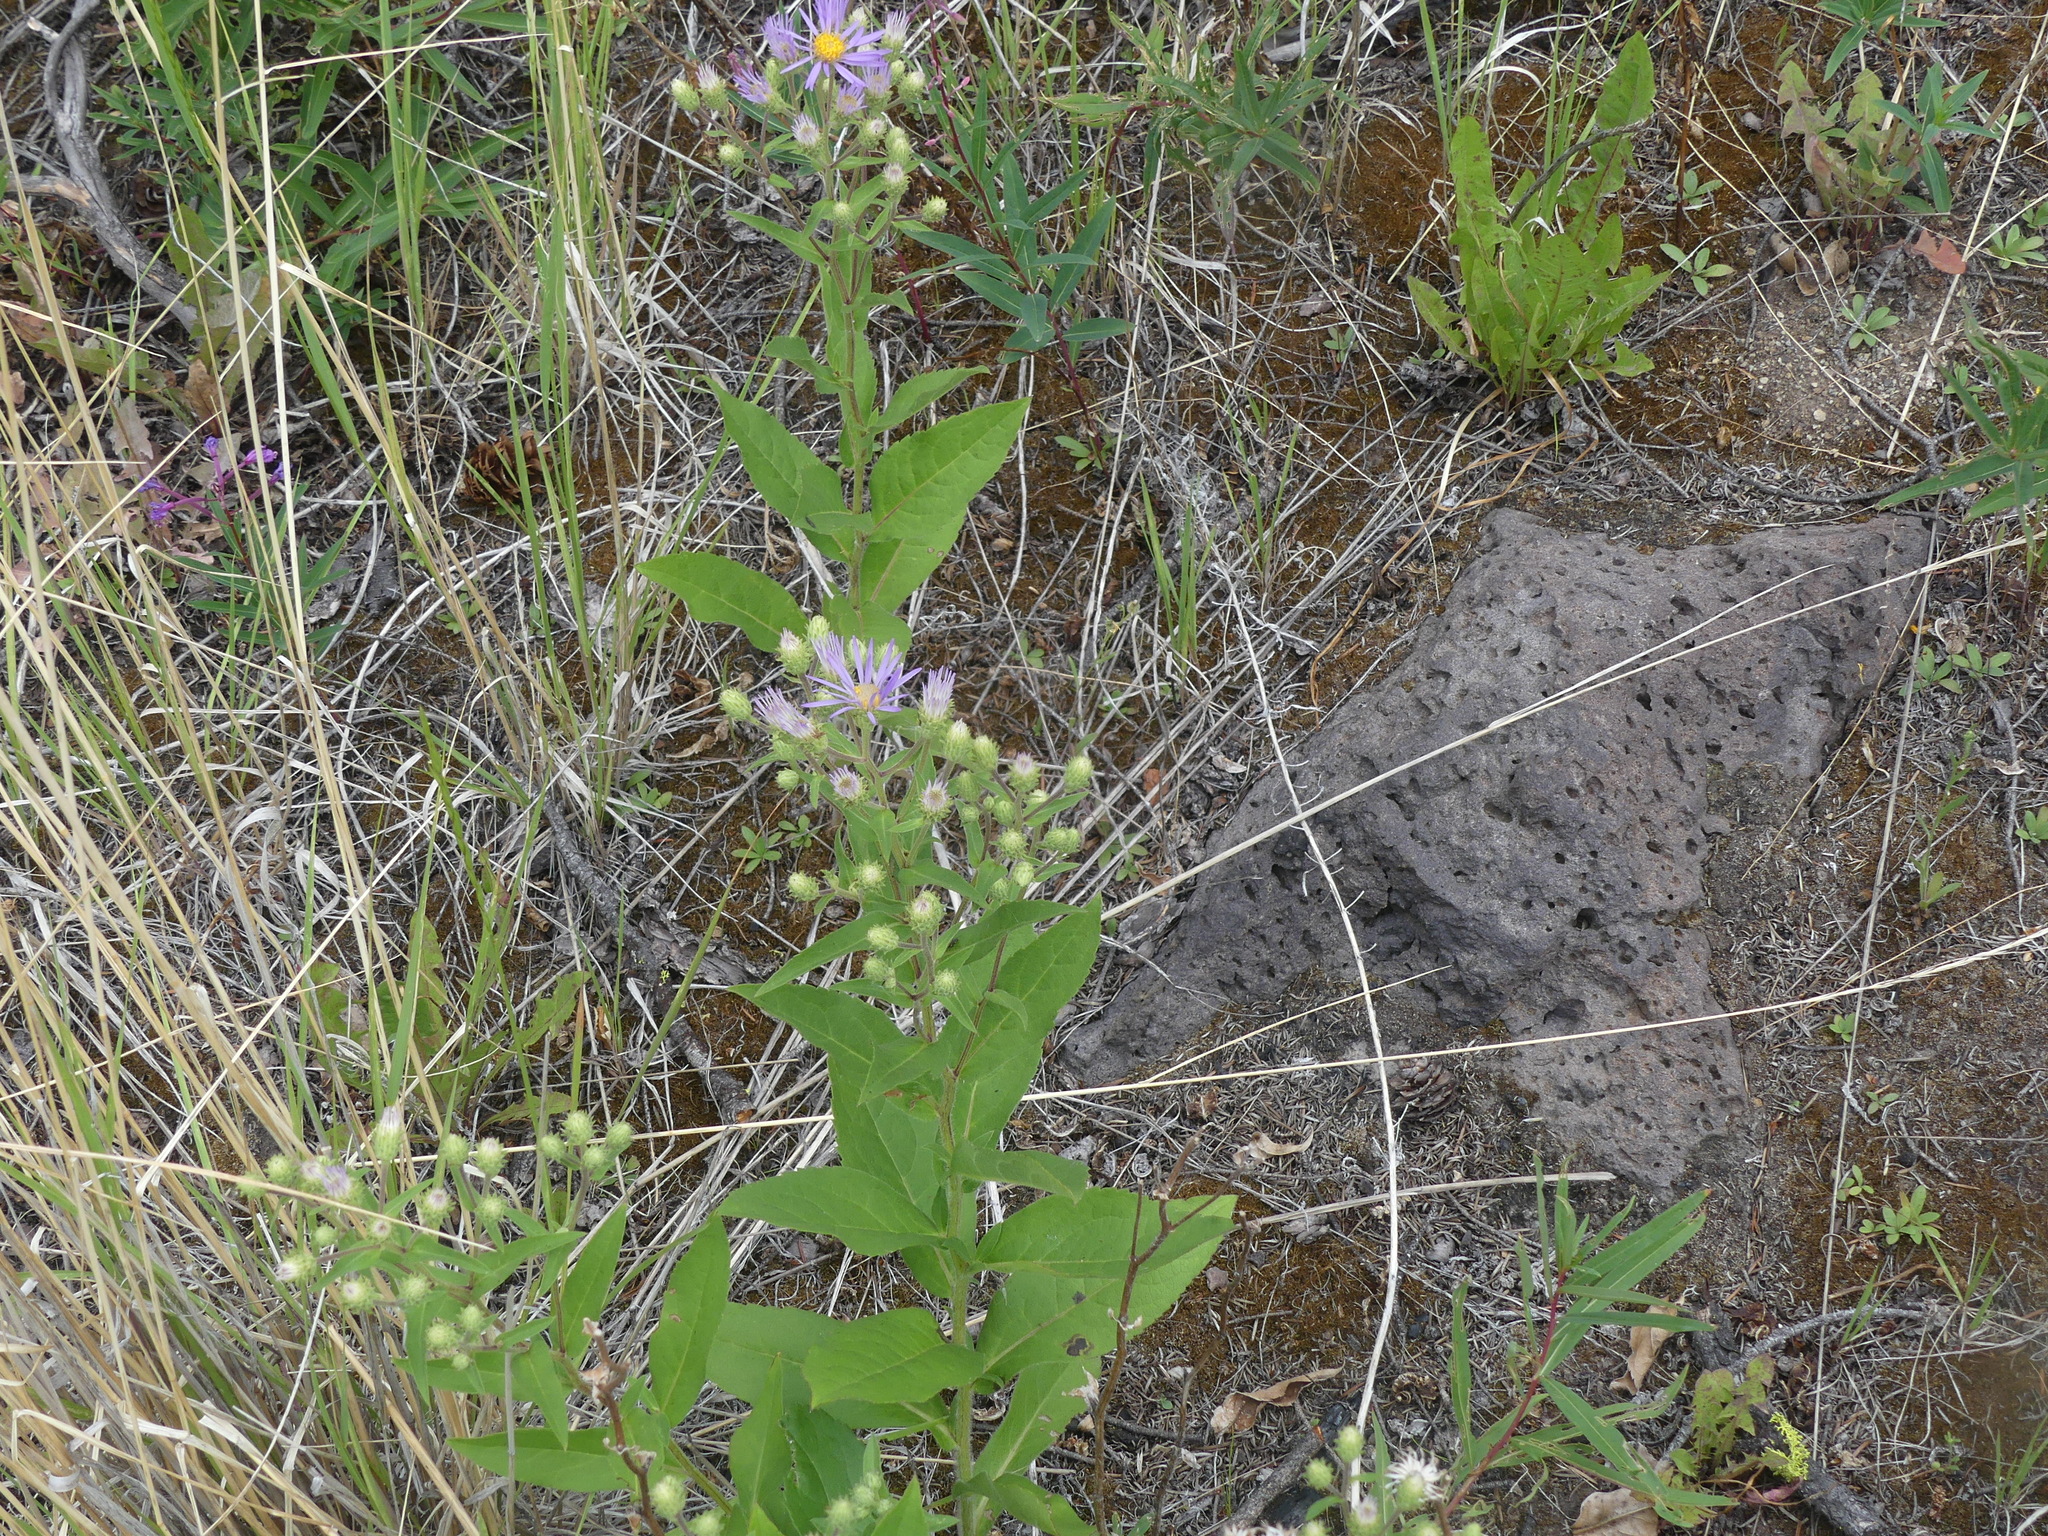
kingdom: Plantae
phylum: Tracheophyta
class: Magnoliopsida
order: Asterales
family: Asteraceae
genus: Eurybia
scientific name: Eurybia conspicua
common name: Showy aster
